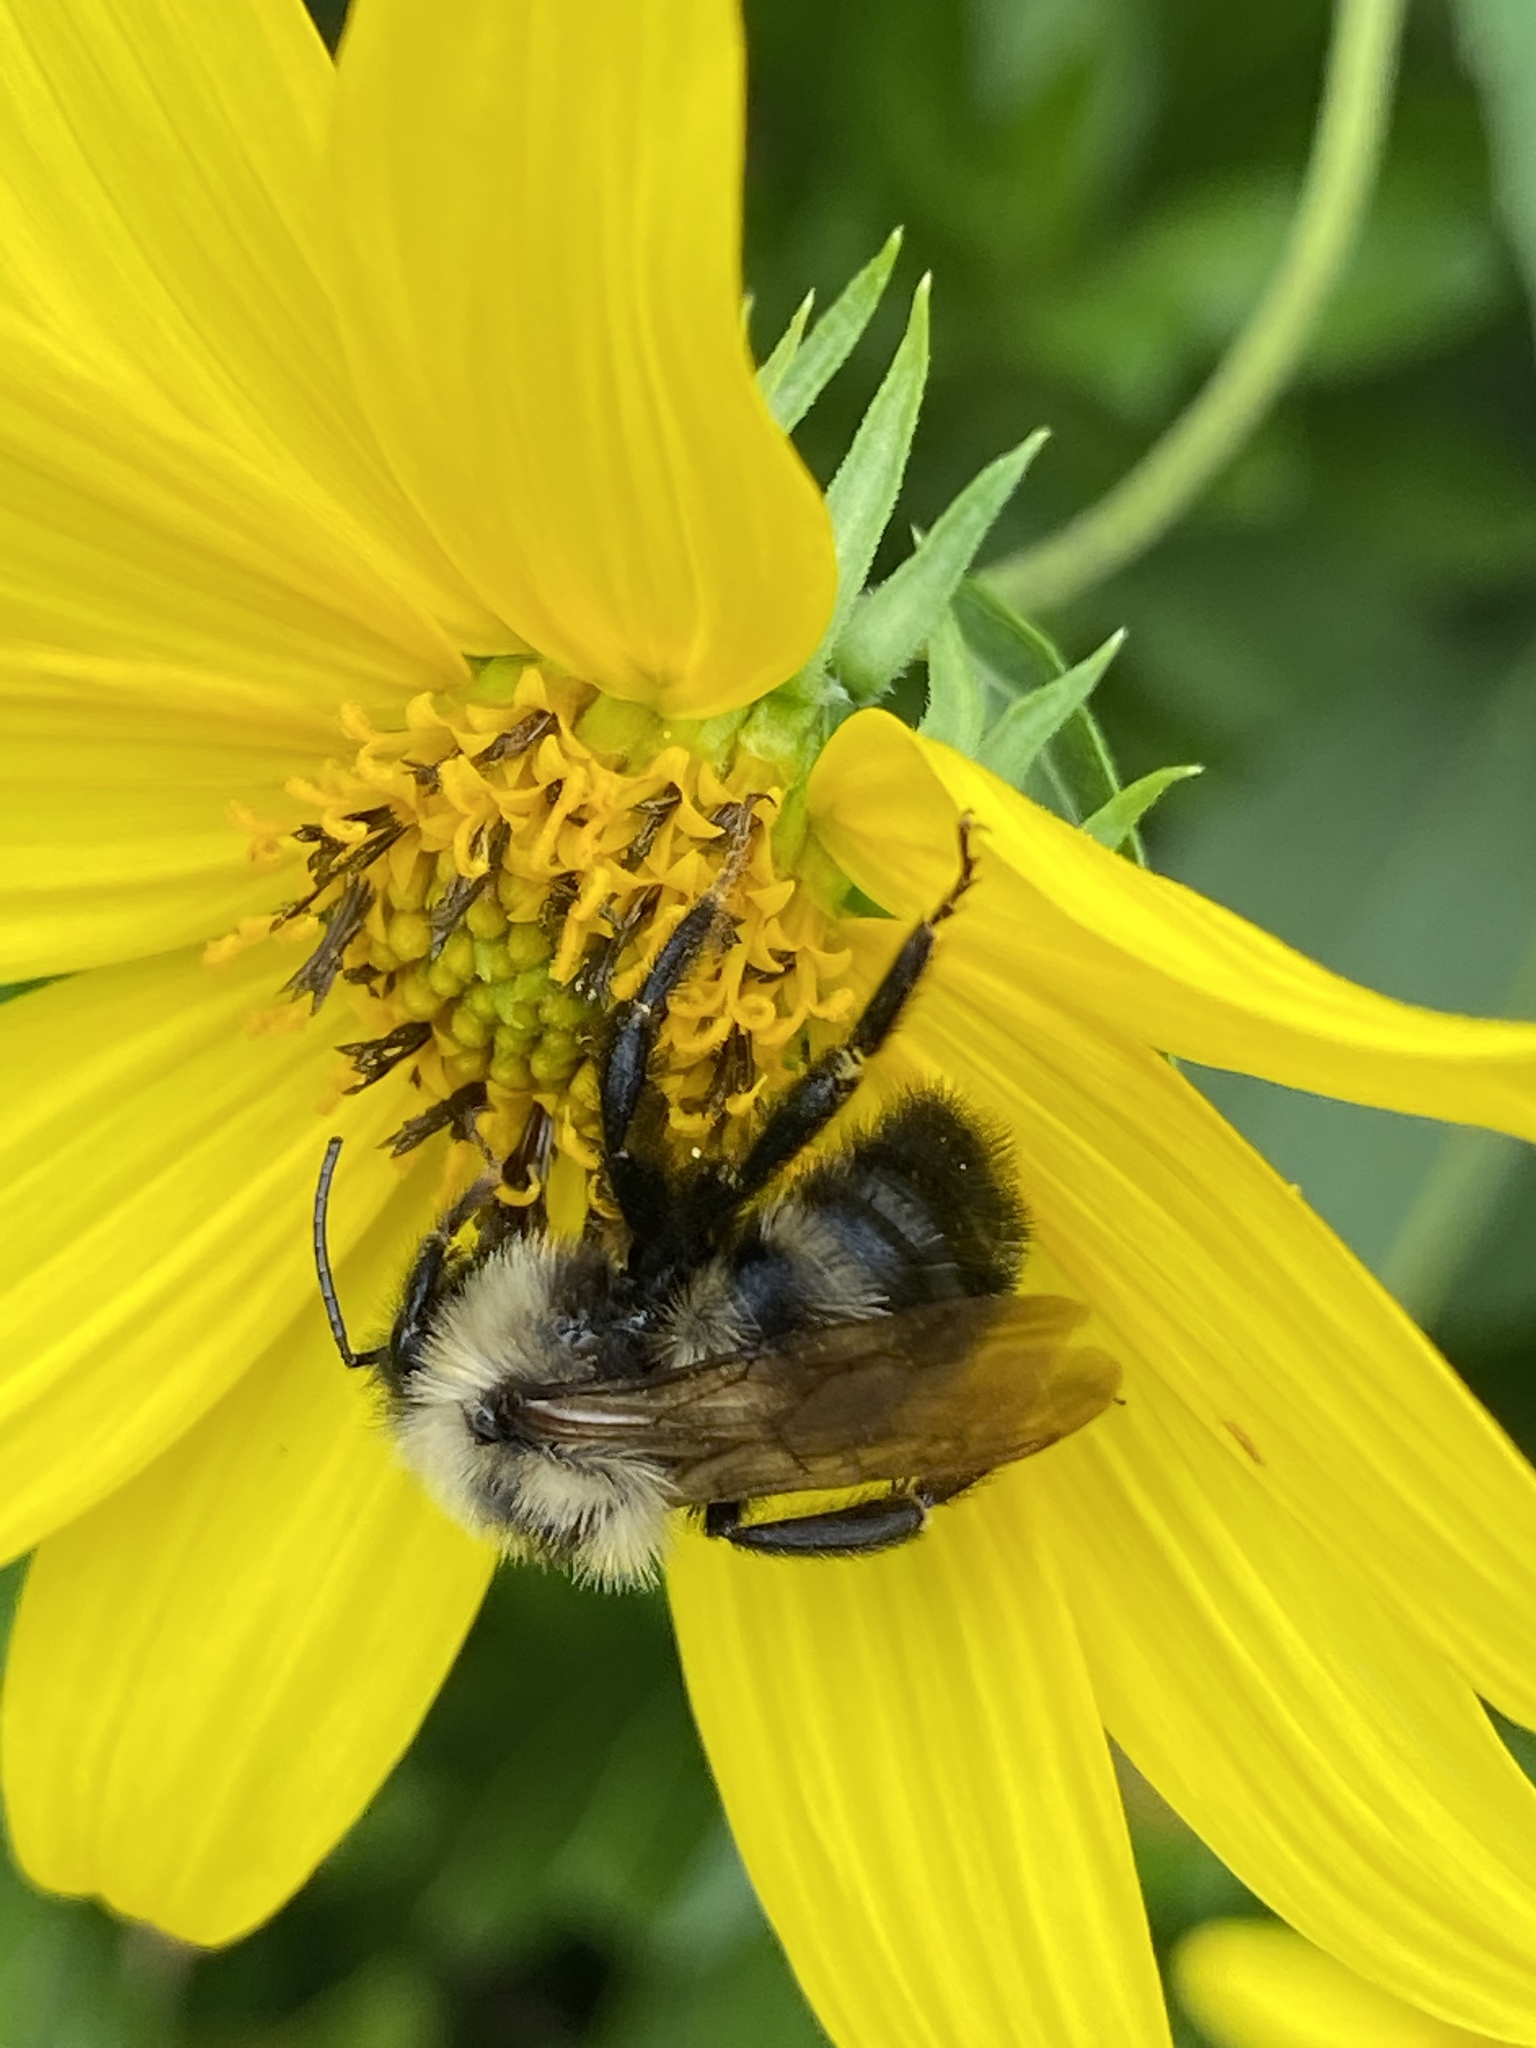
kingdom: Animalia
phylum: Arthropoda
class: Insecta
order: Hymenoptera
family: Apidae
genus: Bombus
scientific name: Bombus citrinus
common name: Lemon cuckoo bumble bee
